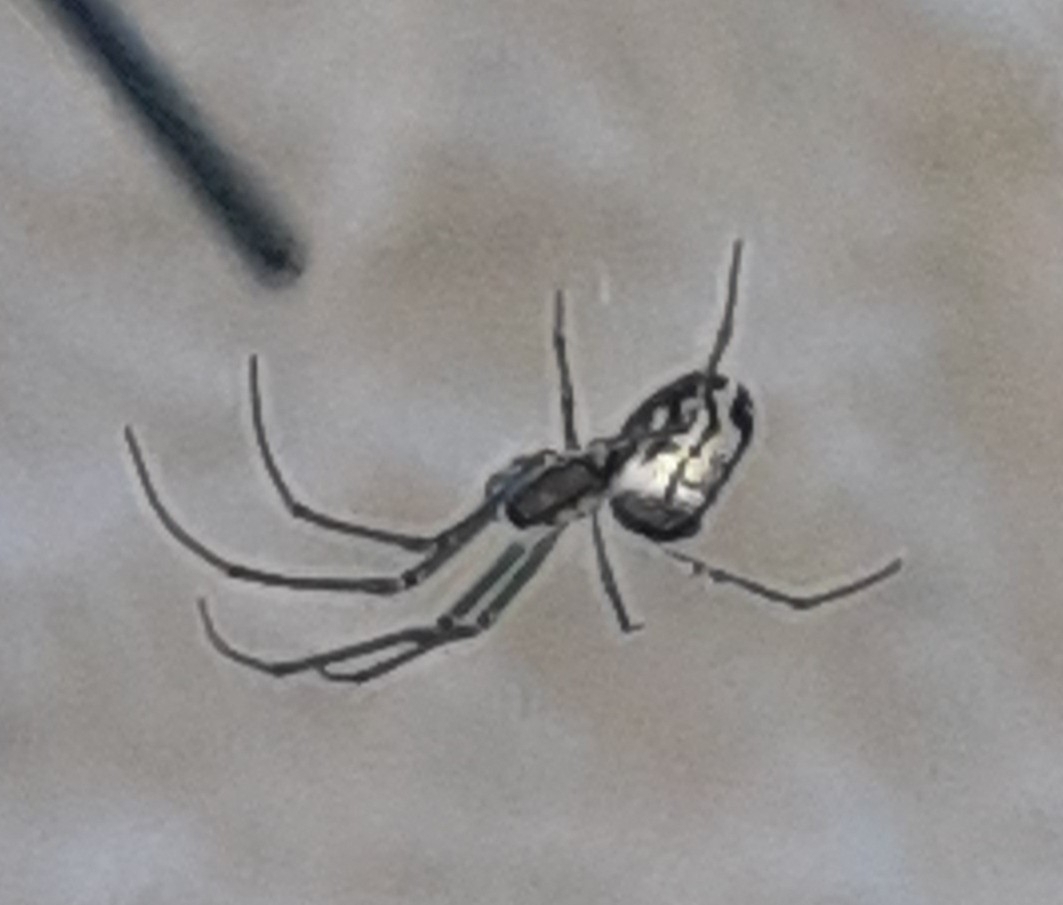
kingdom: Animalia
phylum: Arthropoda
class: Arachnida
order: Araneae
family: Tetragnathidae
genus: Leucauge
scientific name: Leucauge volupis
